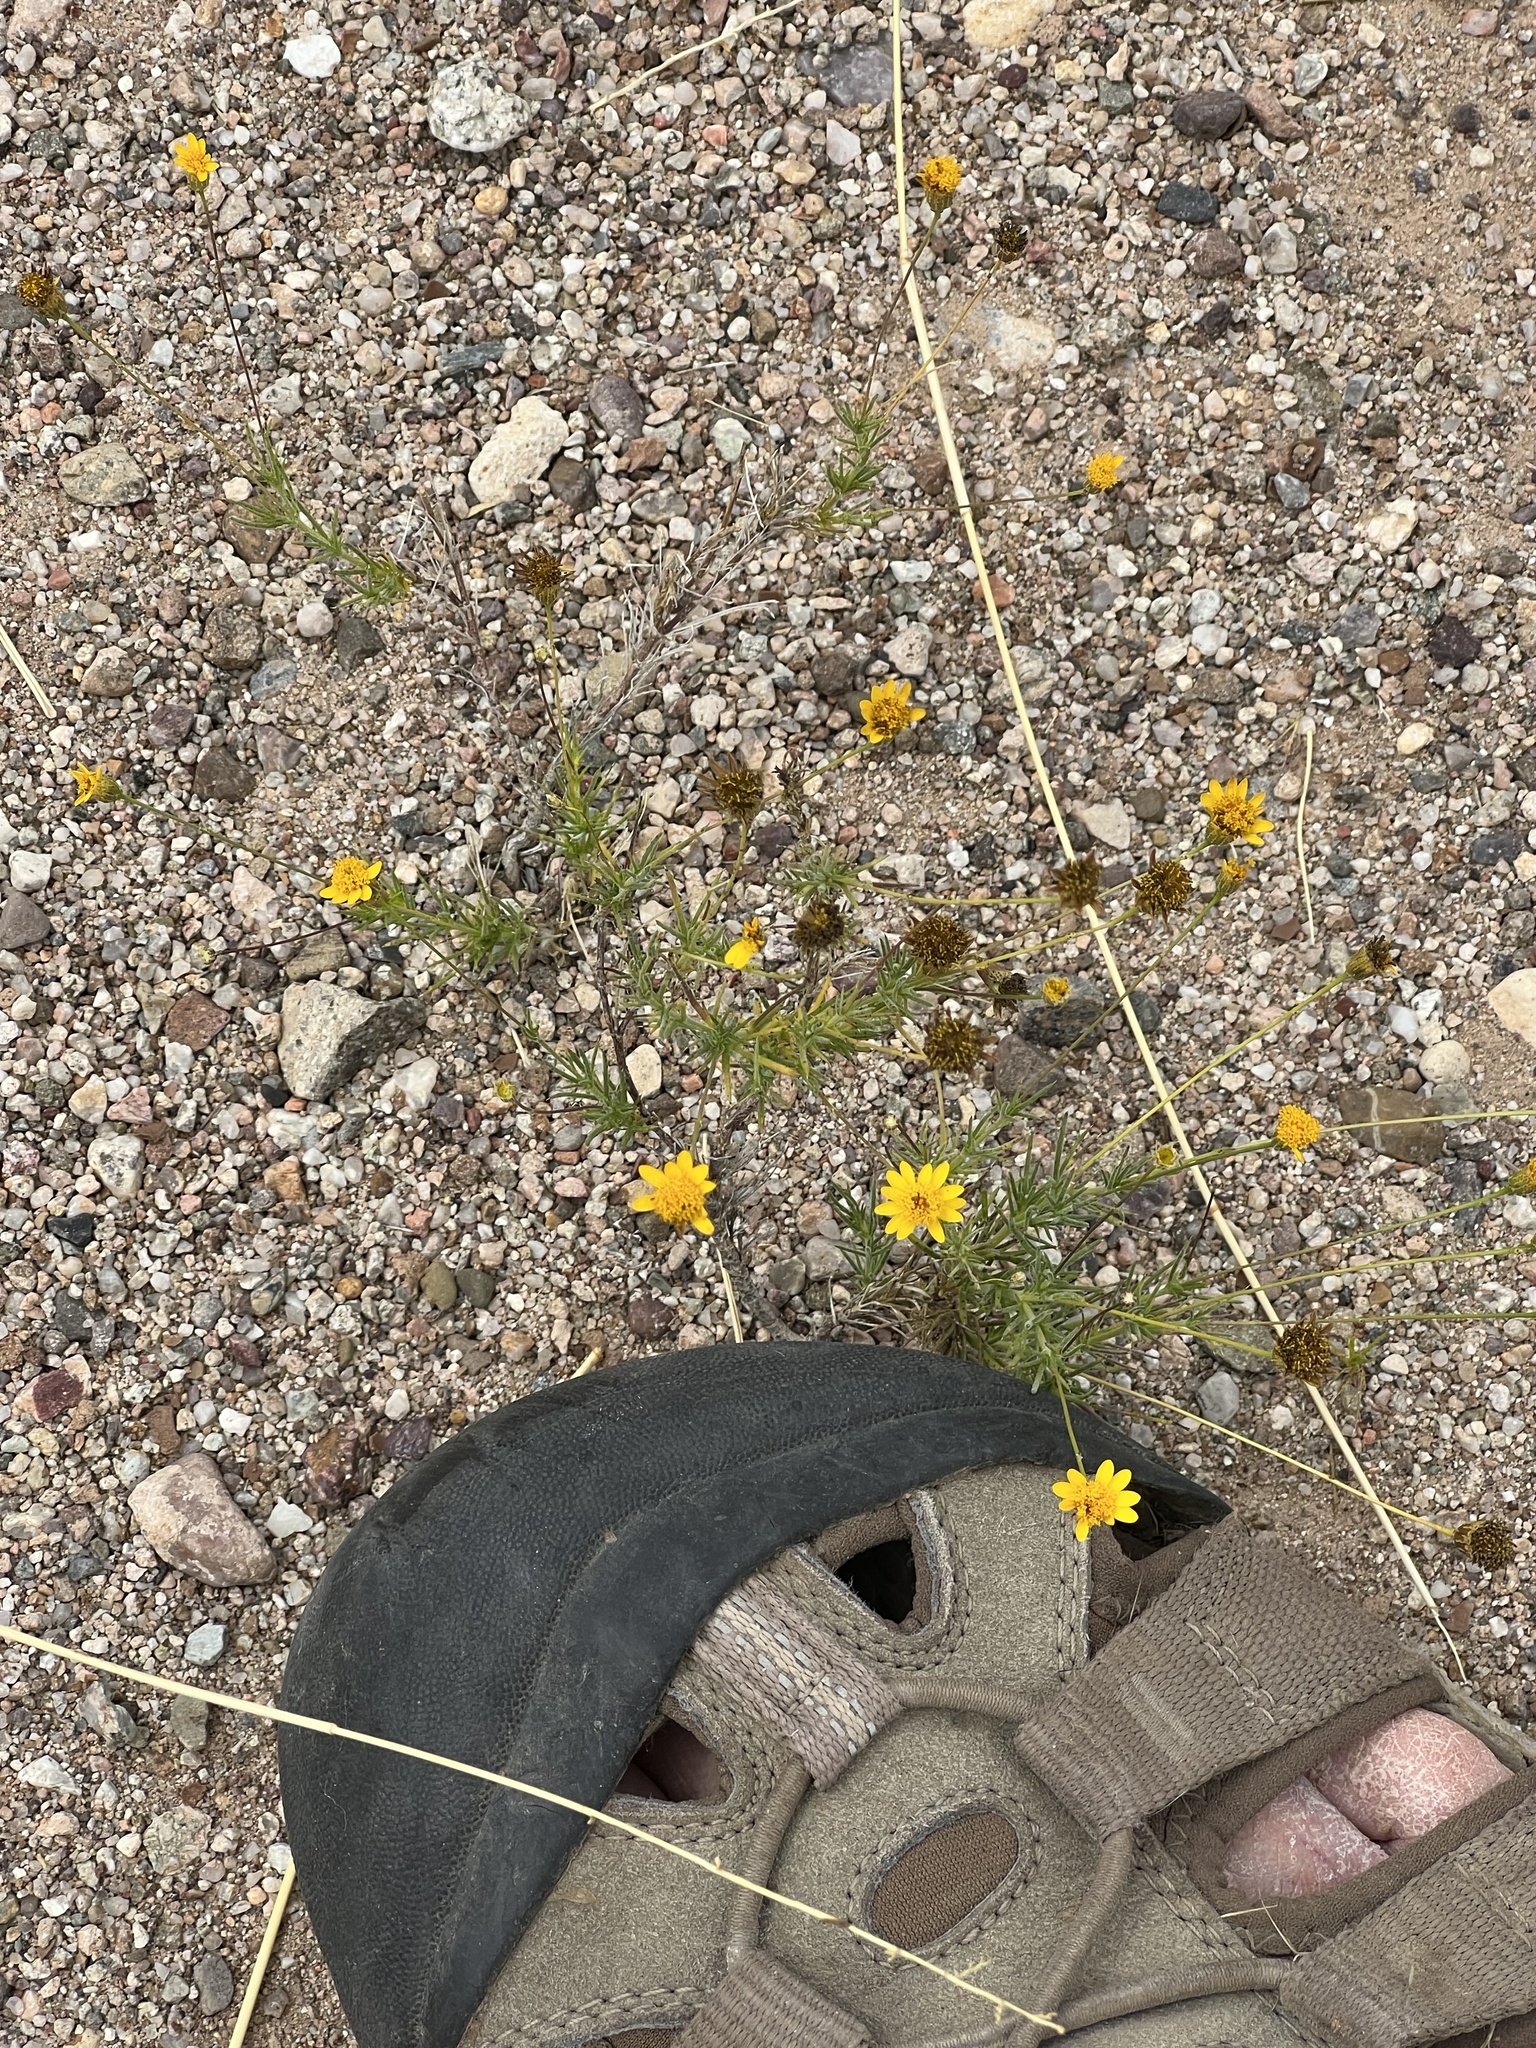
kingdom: Plantae
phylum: Tracheophyta
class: Magnoliopsida
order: Asterales
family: Asteraceae
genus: Thymophylla
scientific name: Thymophylla pentachaeta
